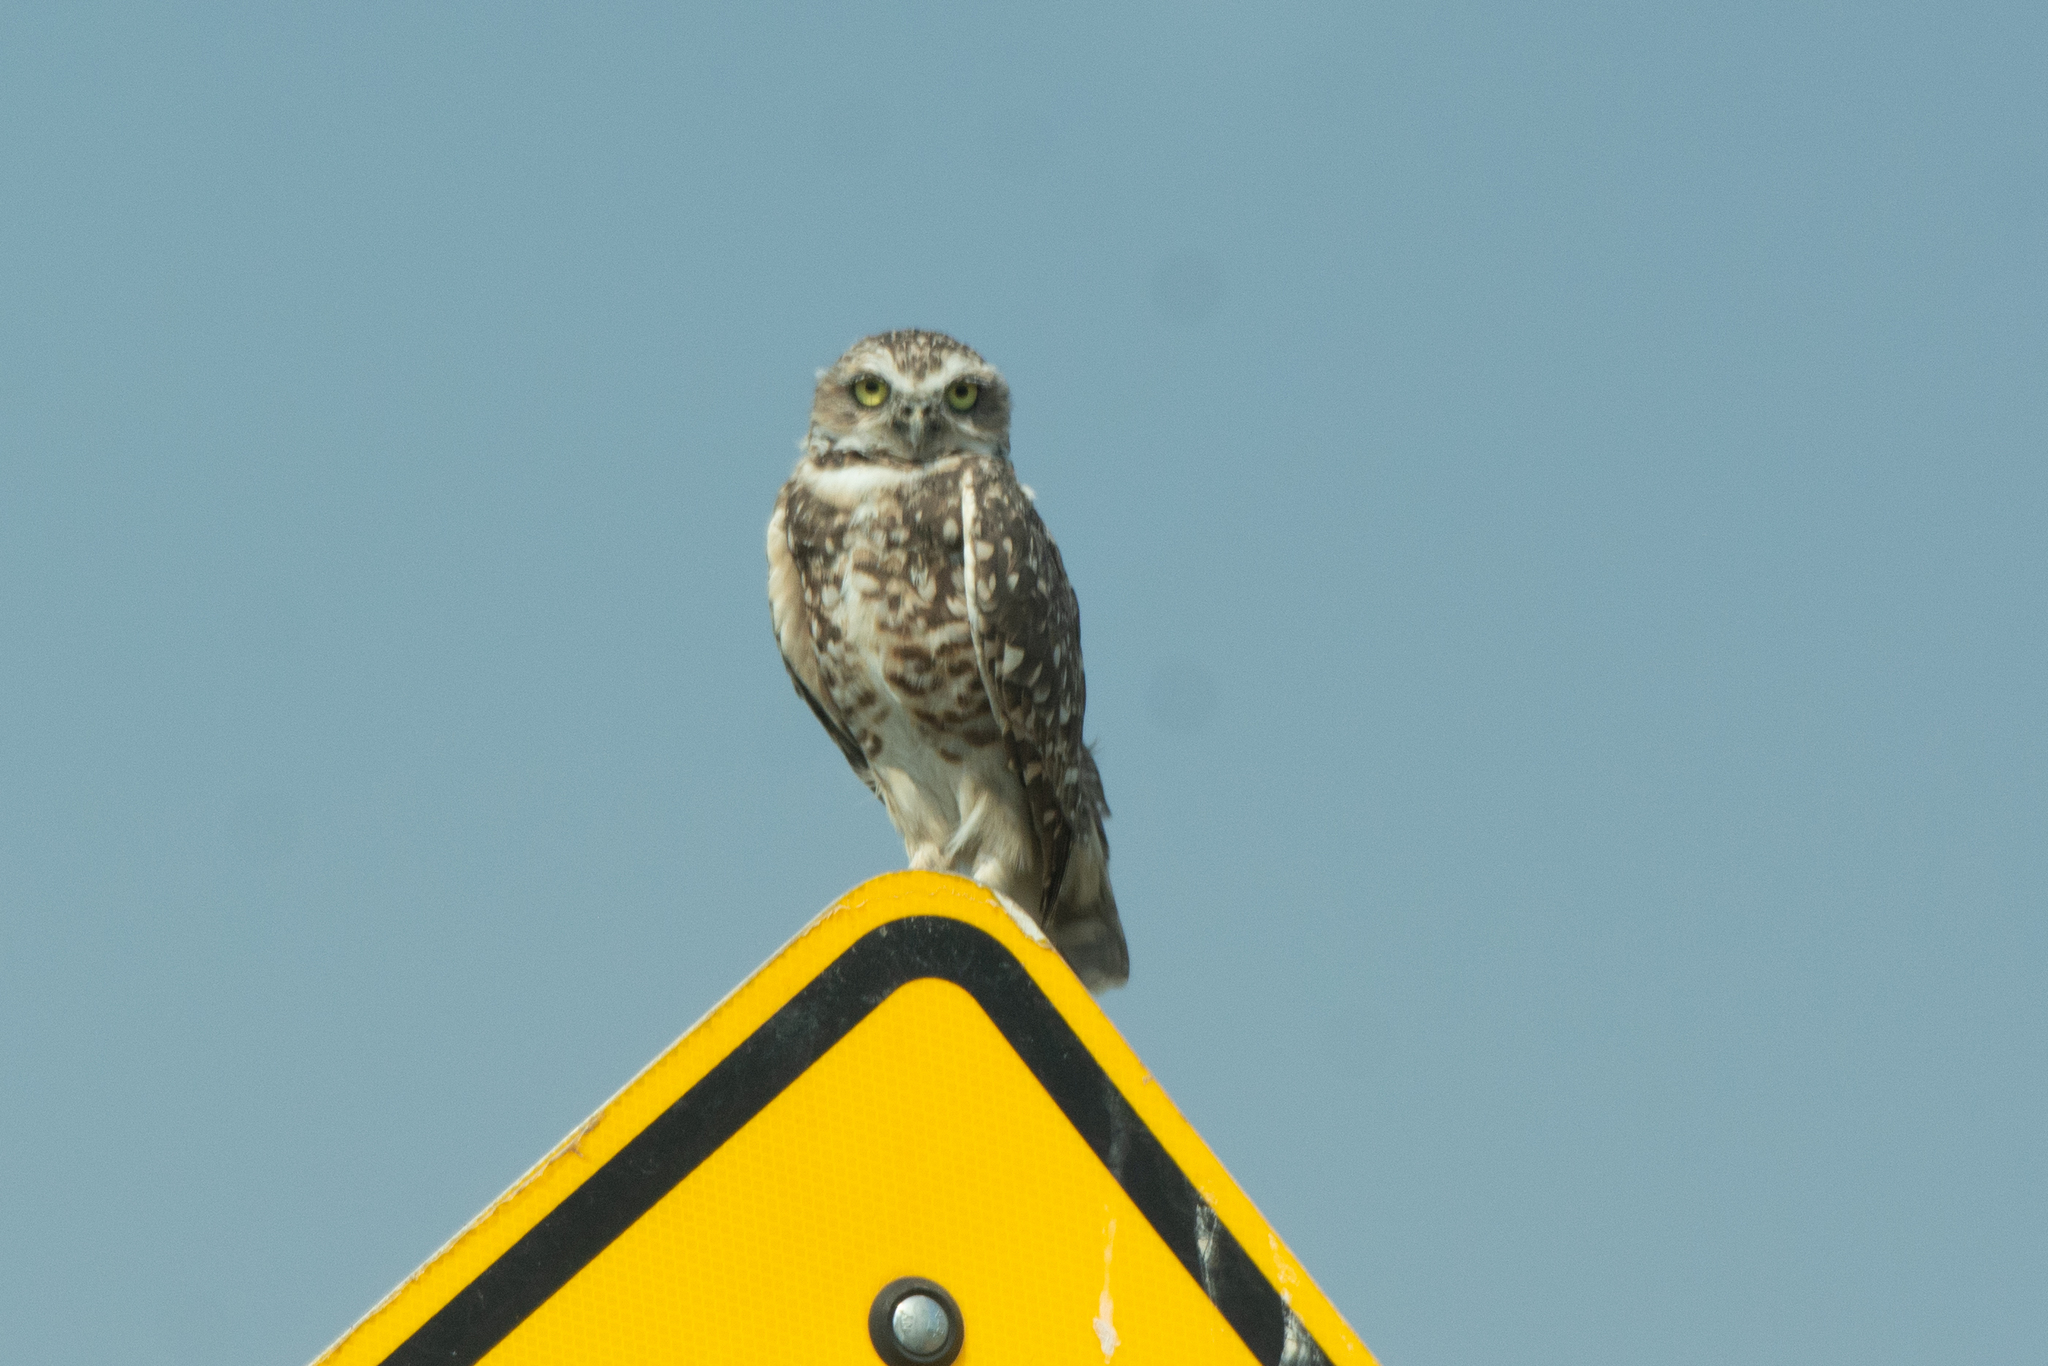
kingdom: Animalia
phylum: Chordata
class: Aves
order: Strigiformes
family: Strigidae
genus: Athene
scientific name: Athene cunicularia
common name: Burrowing owl
